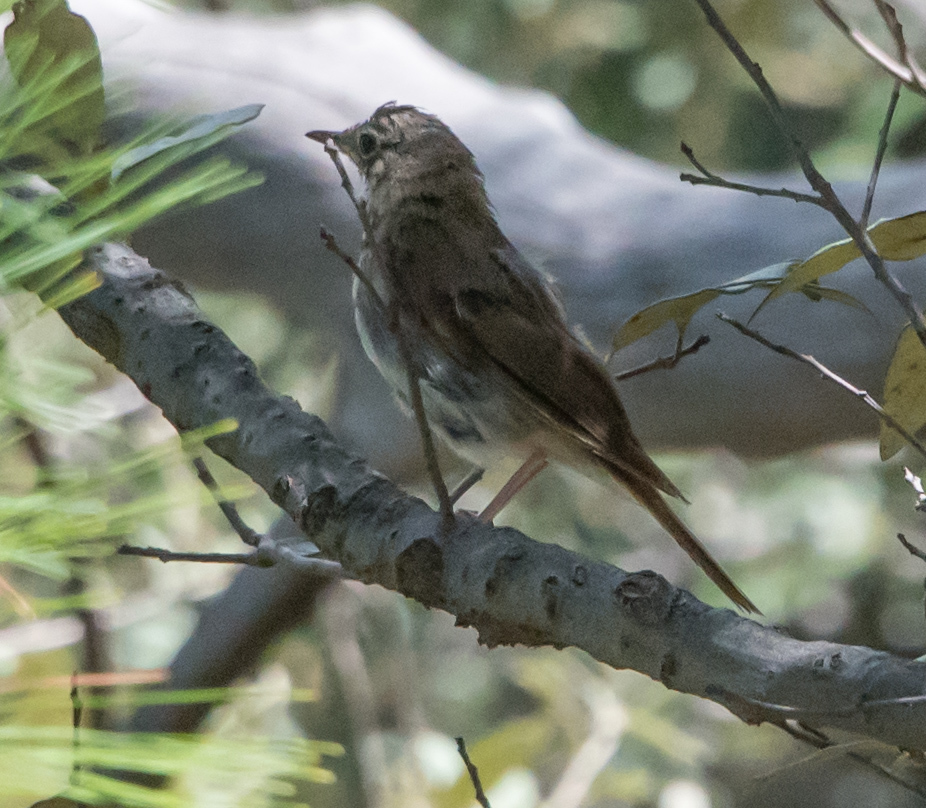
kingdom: Animalia
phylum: Chordata
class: Aves
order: Passeriformes
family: Turdidae
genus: Catharus
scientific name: Catharus guttatus
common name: Hermit thrush
